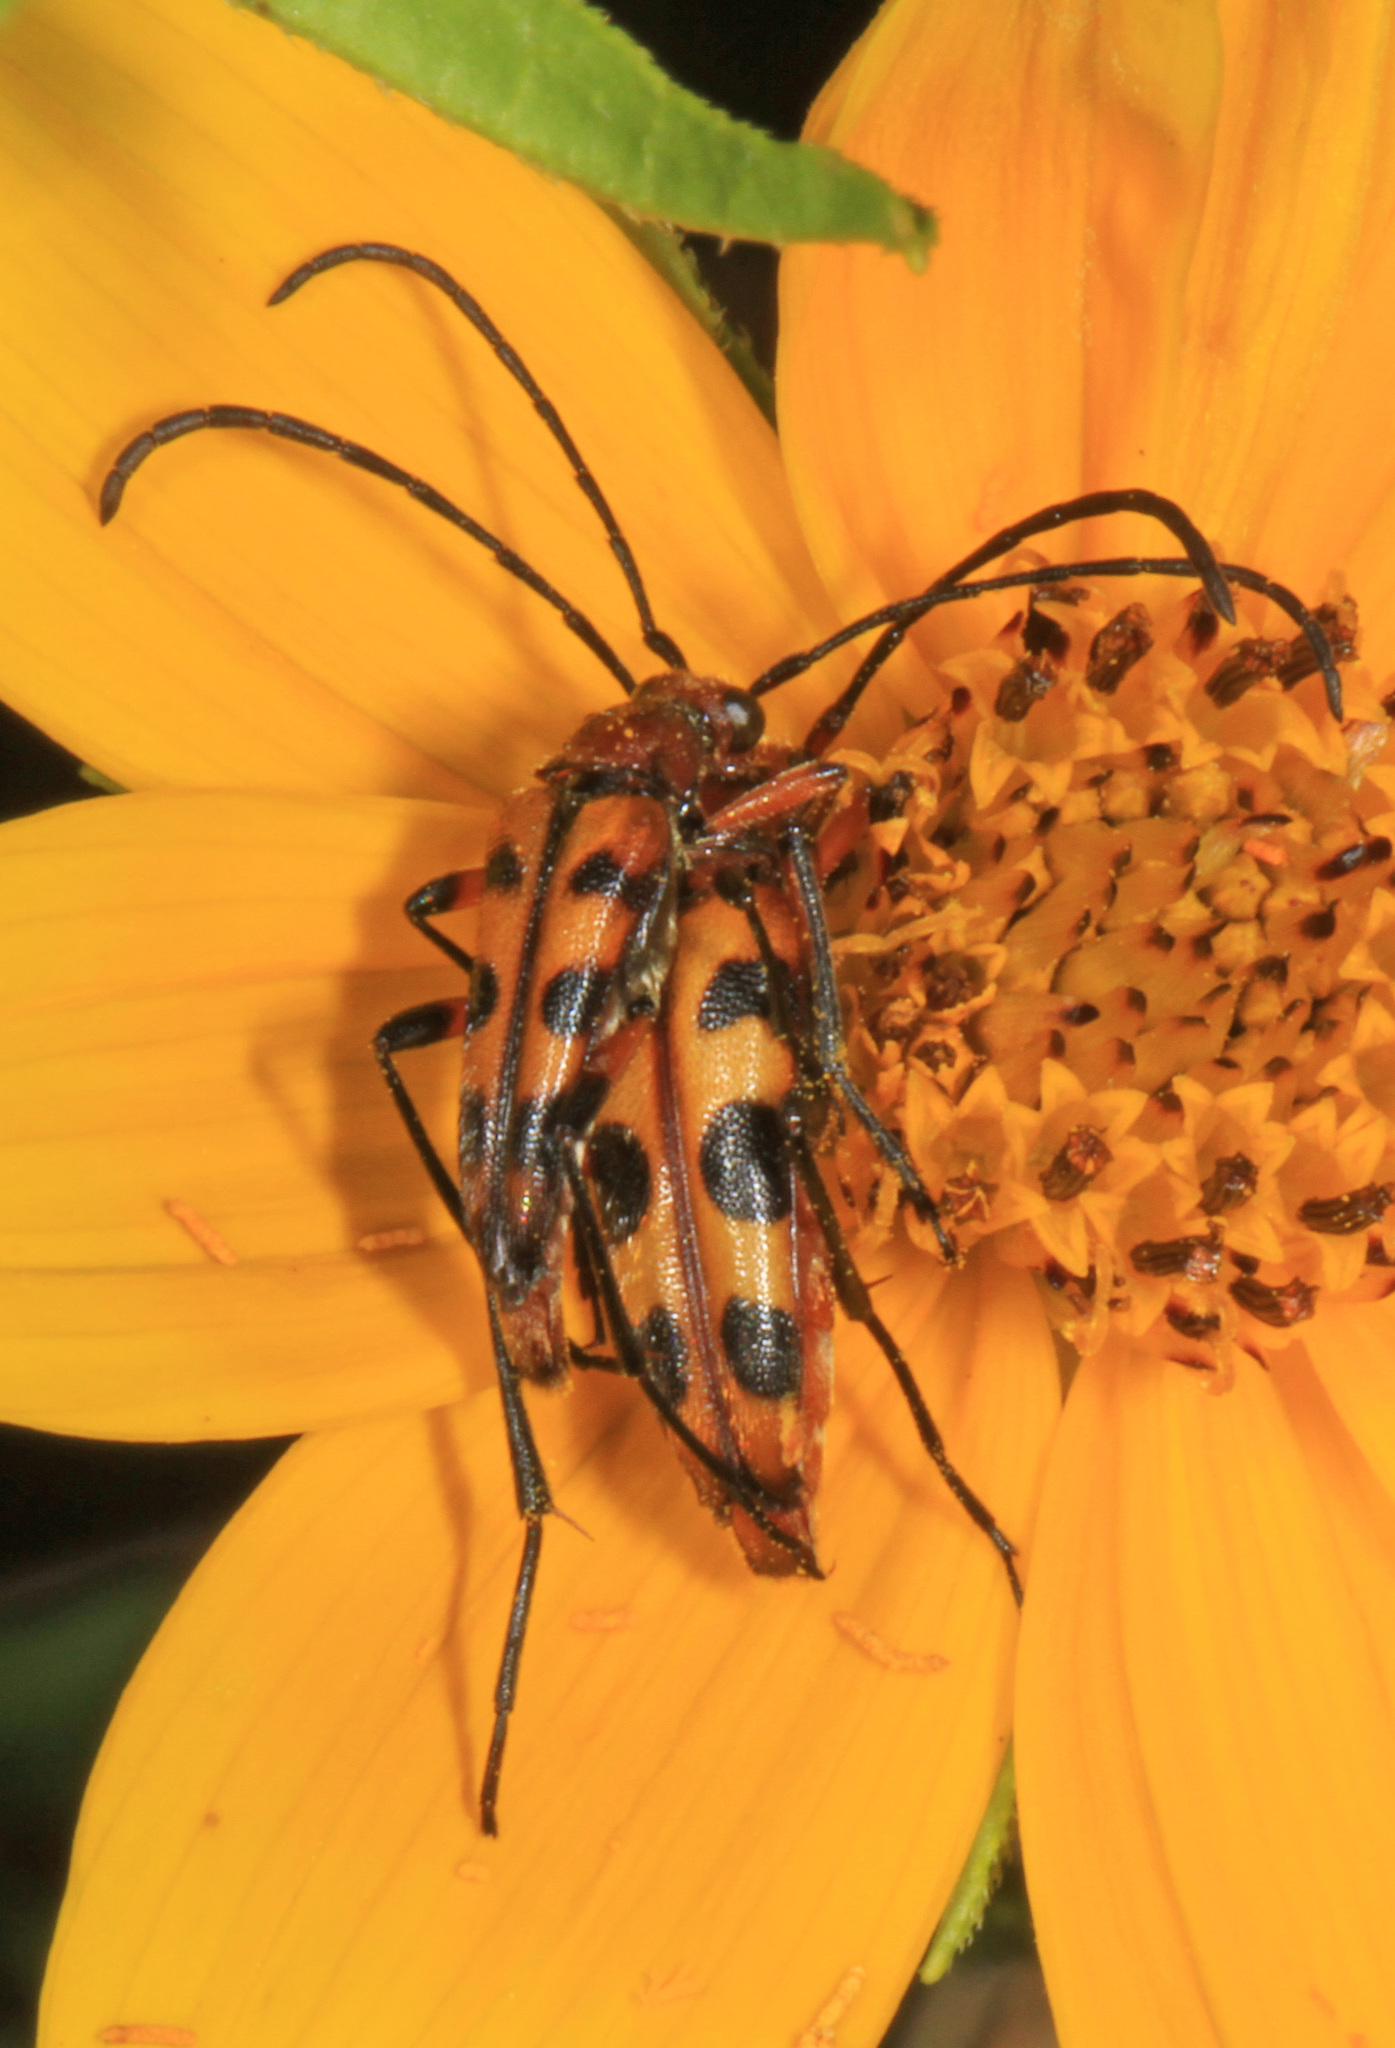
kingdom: Animalia
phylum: Arthropoda
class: Insecta
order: Coleoptera
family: Cerambycidae
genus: Strangalia
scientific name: Strangalia sexnotata
